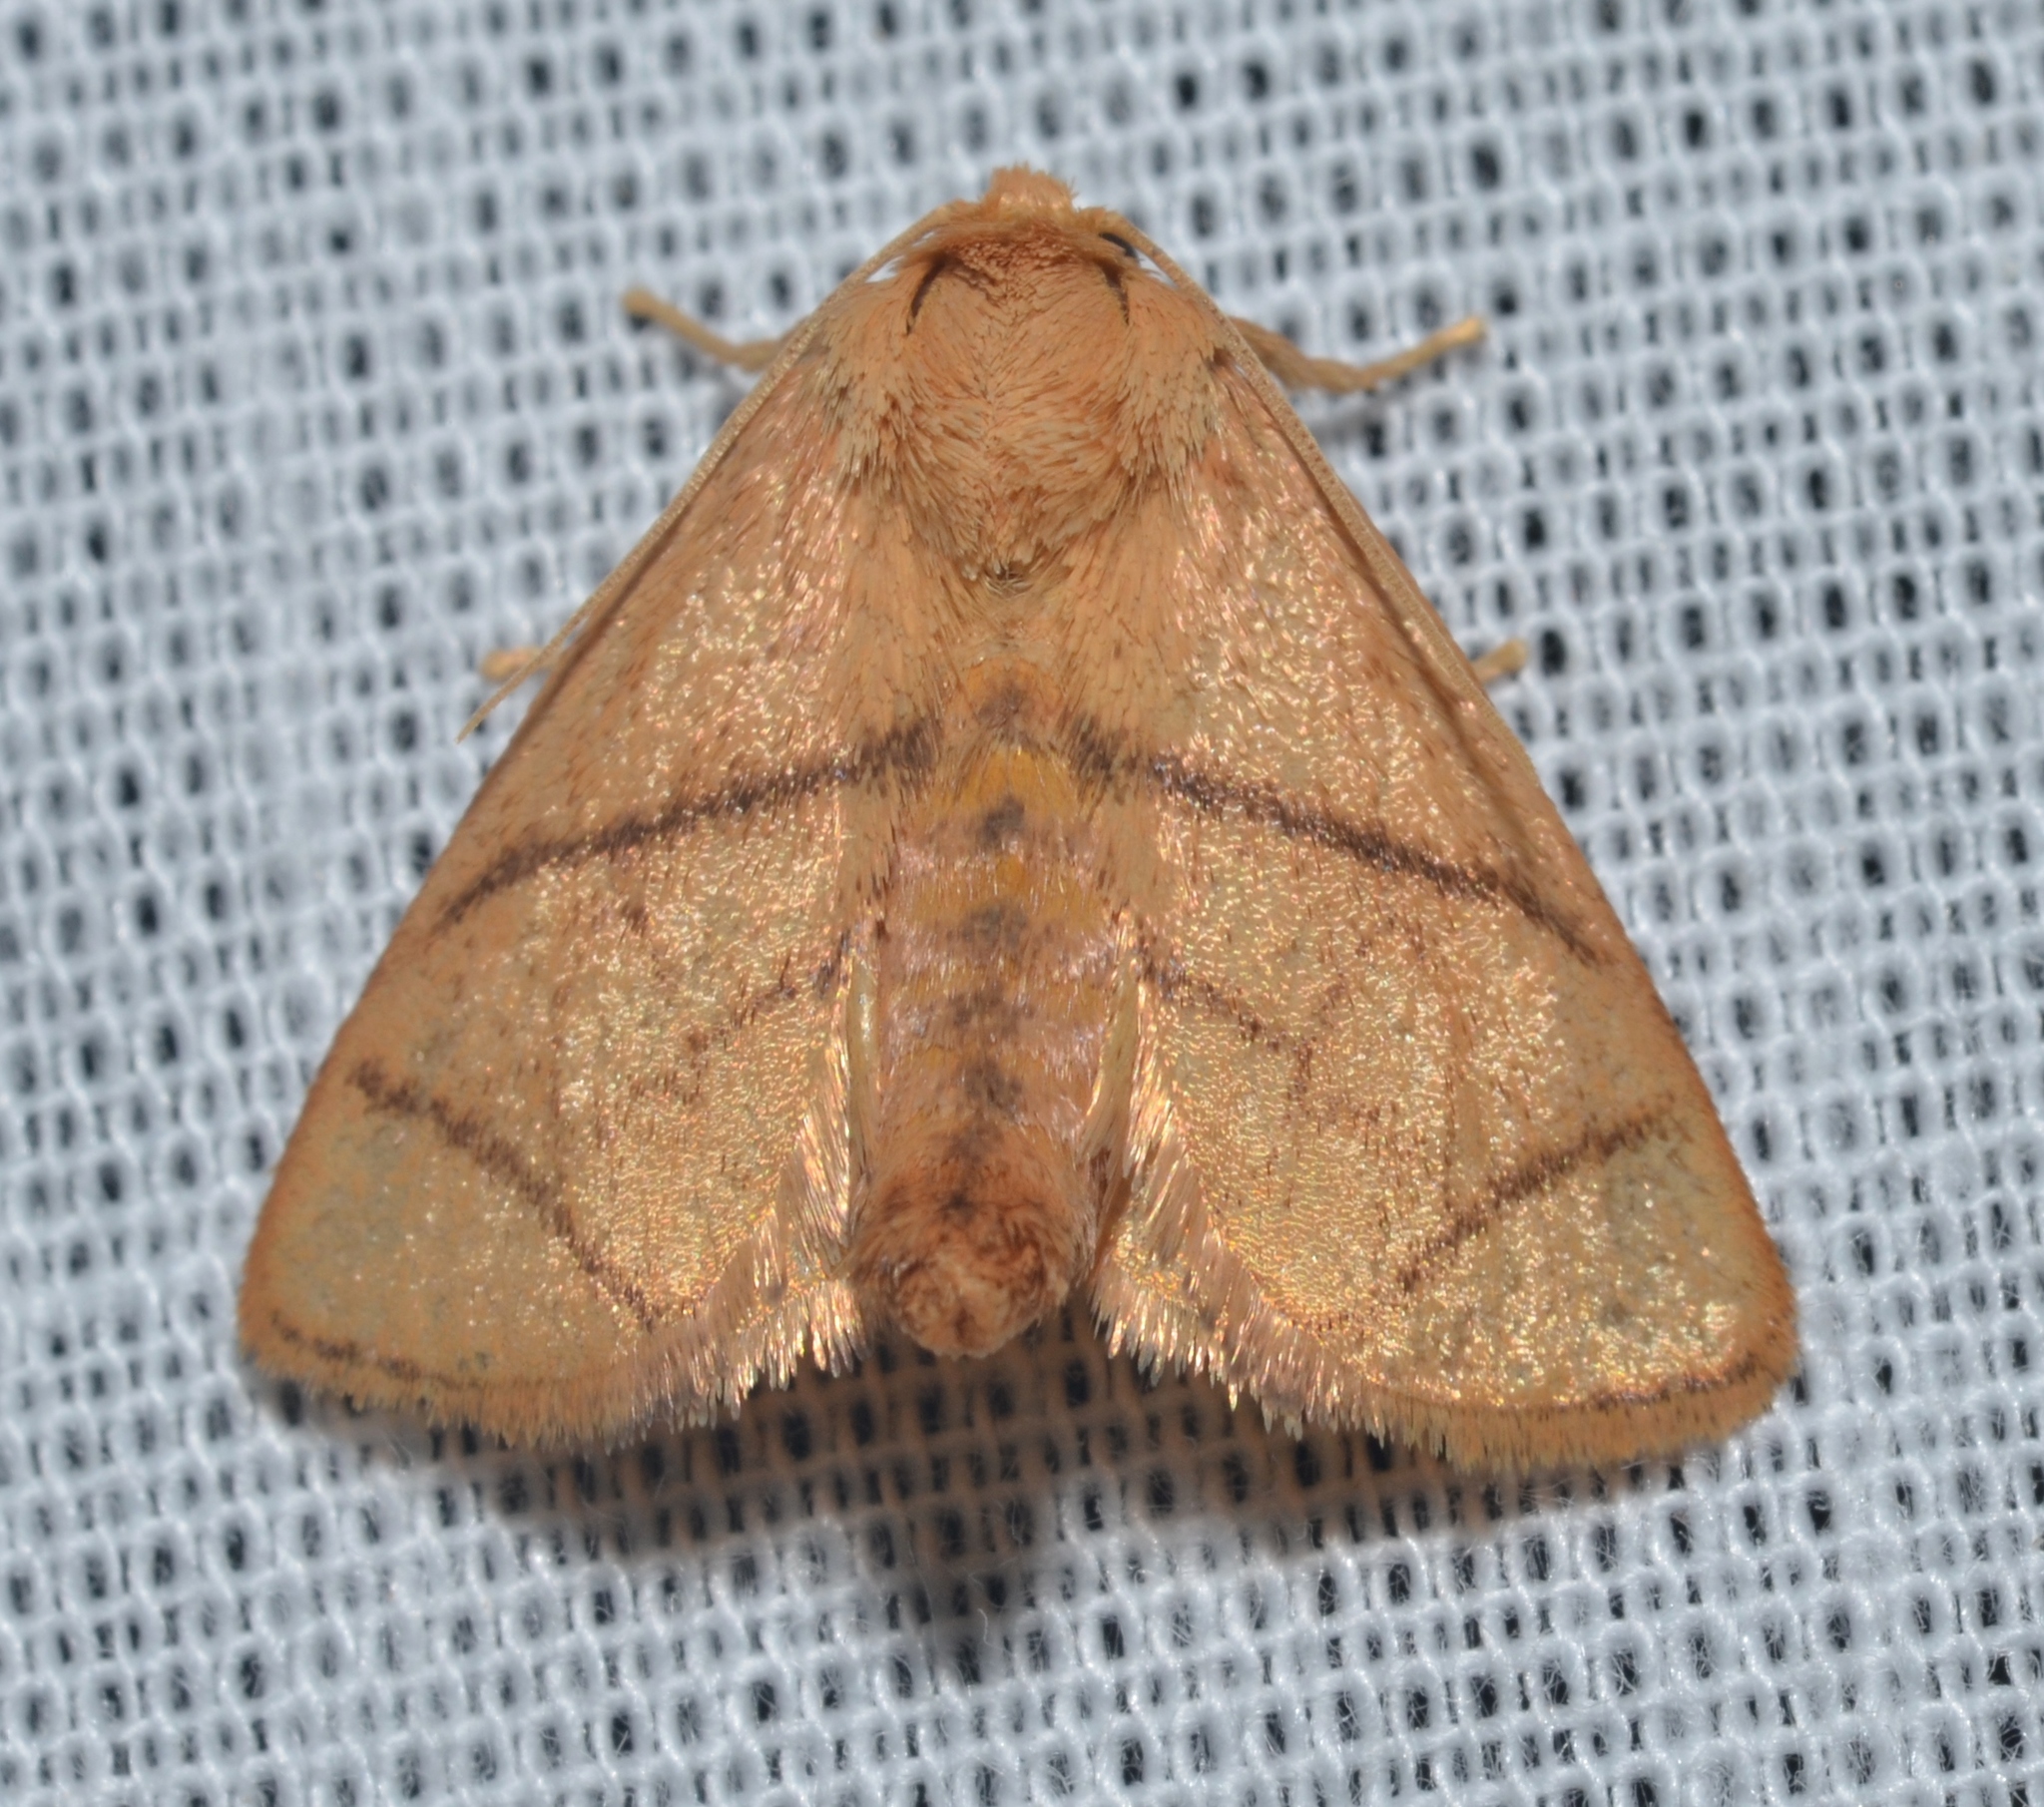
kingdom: Animalia
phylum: Arthropoda
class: Insecta
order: Lepidoptera
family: Limacodidae
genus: Apoda
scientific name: Apoda y-inversa
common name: Yellow-collared slug moth
